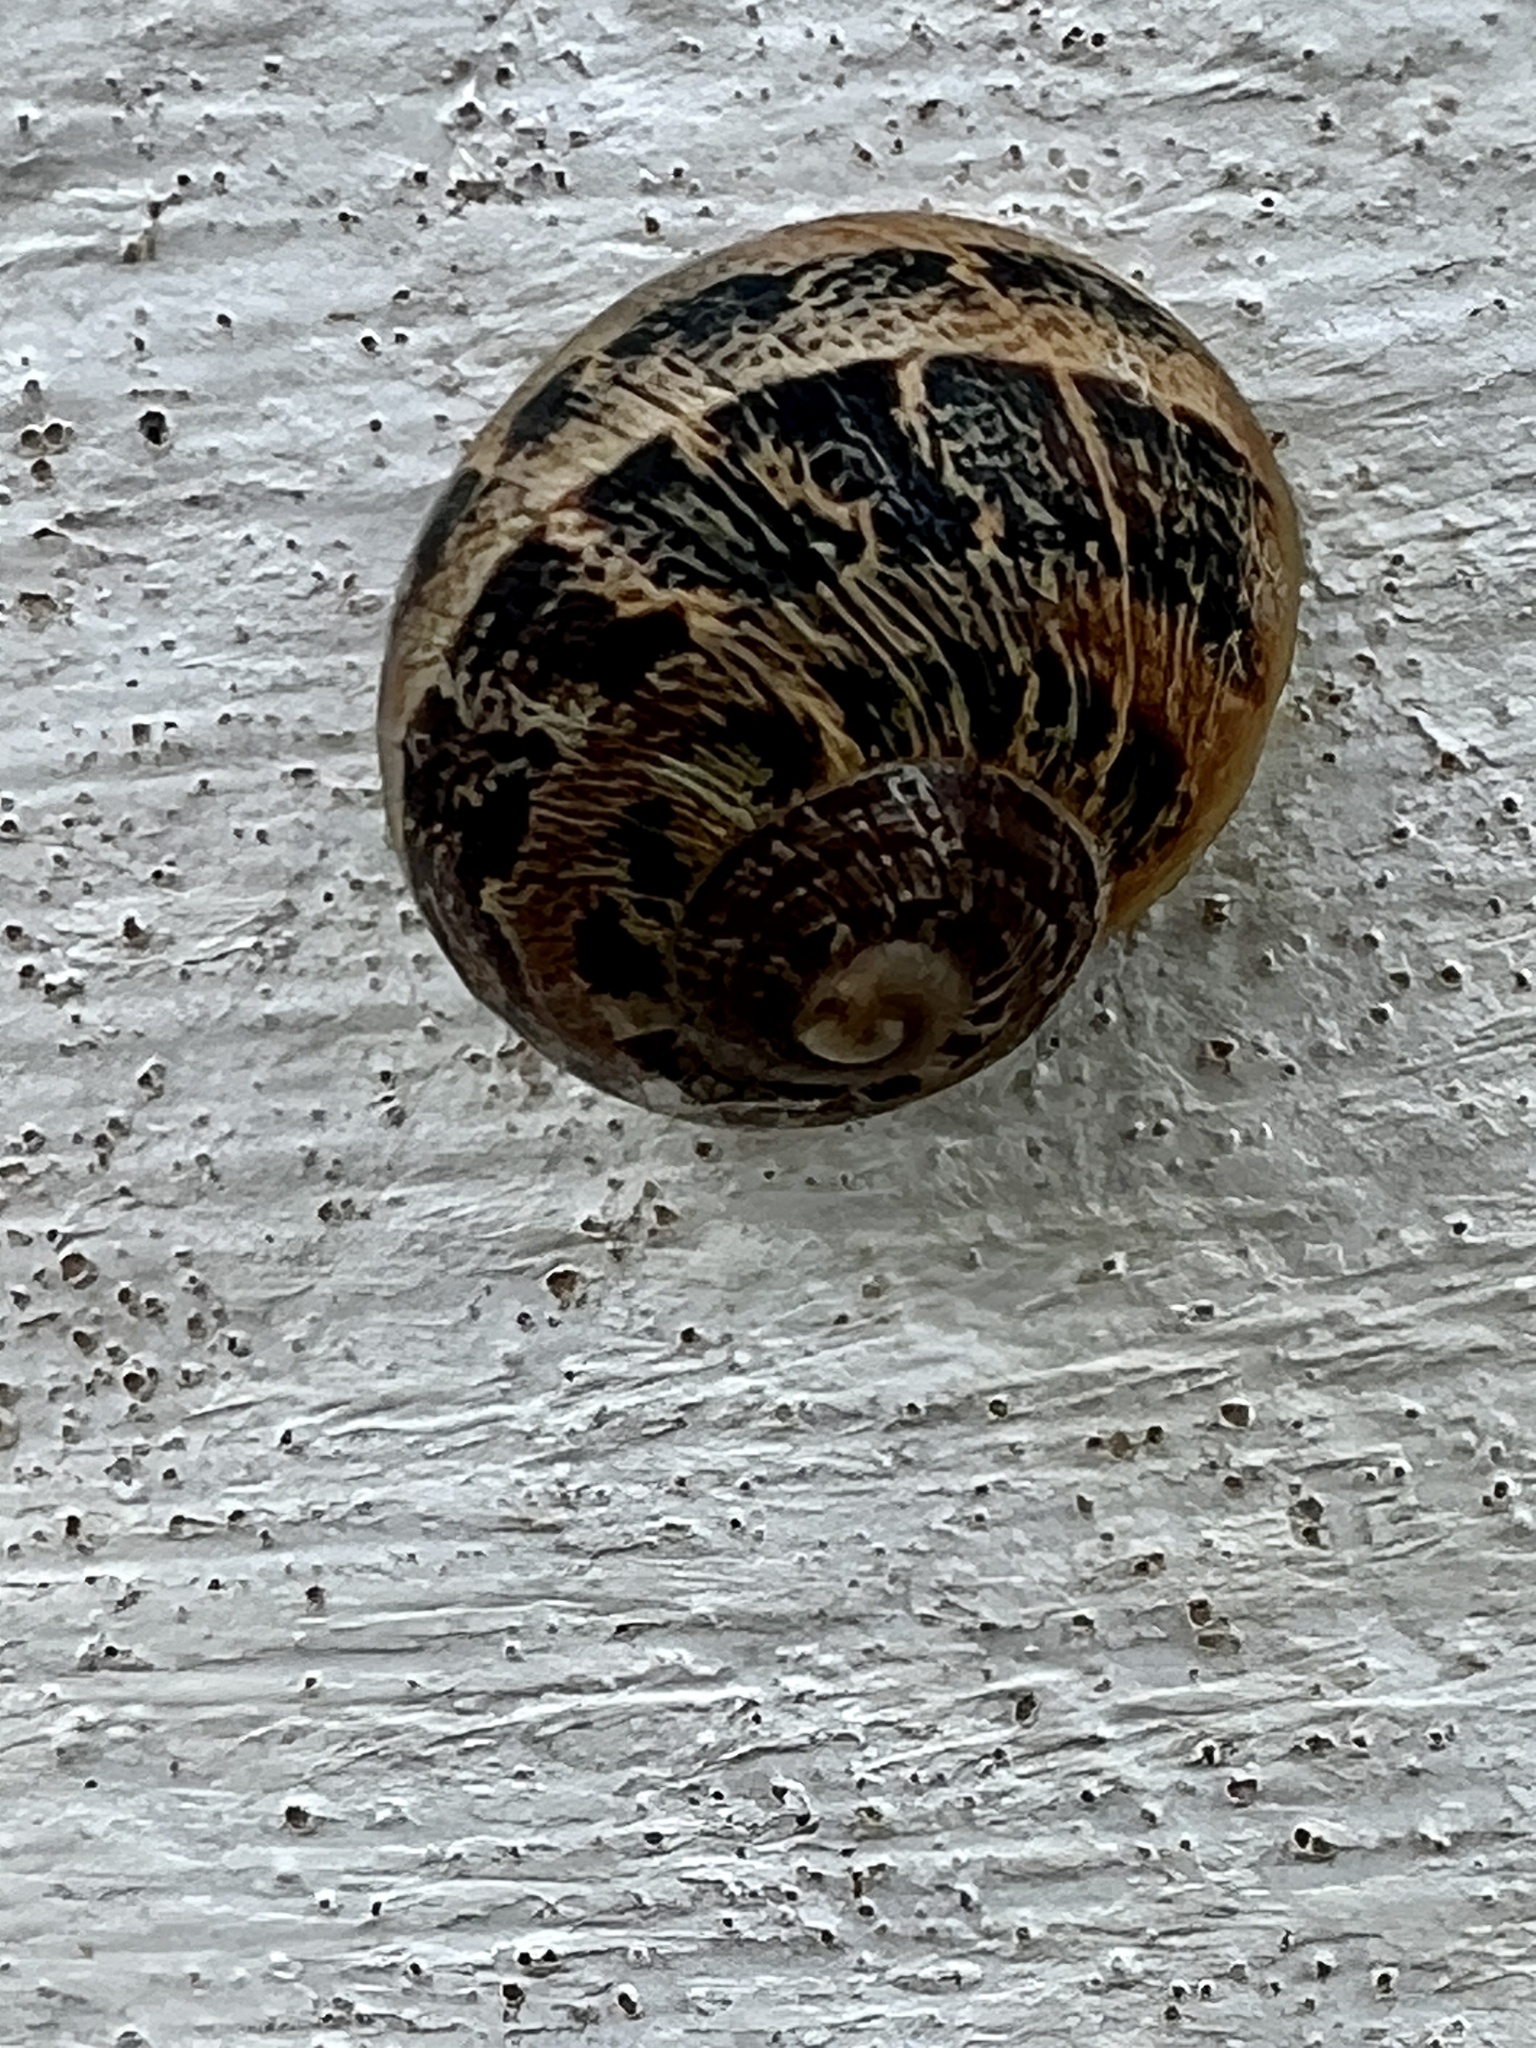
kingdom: Animalia
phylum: Mollusca
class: Gastropoda
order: Stylommatophora
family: Helicidae
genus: Cornu
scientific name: Cornu aspersum
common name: Brown garden snail
